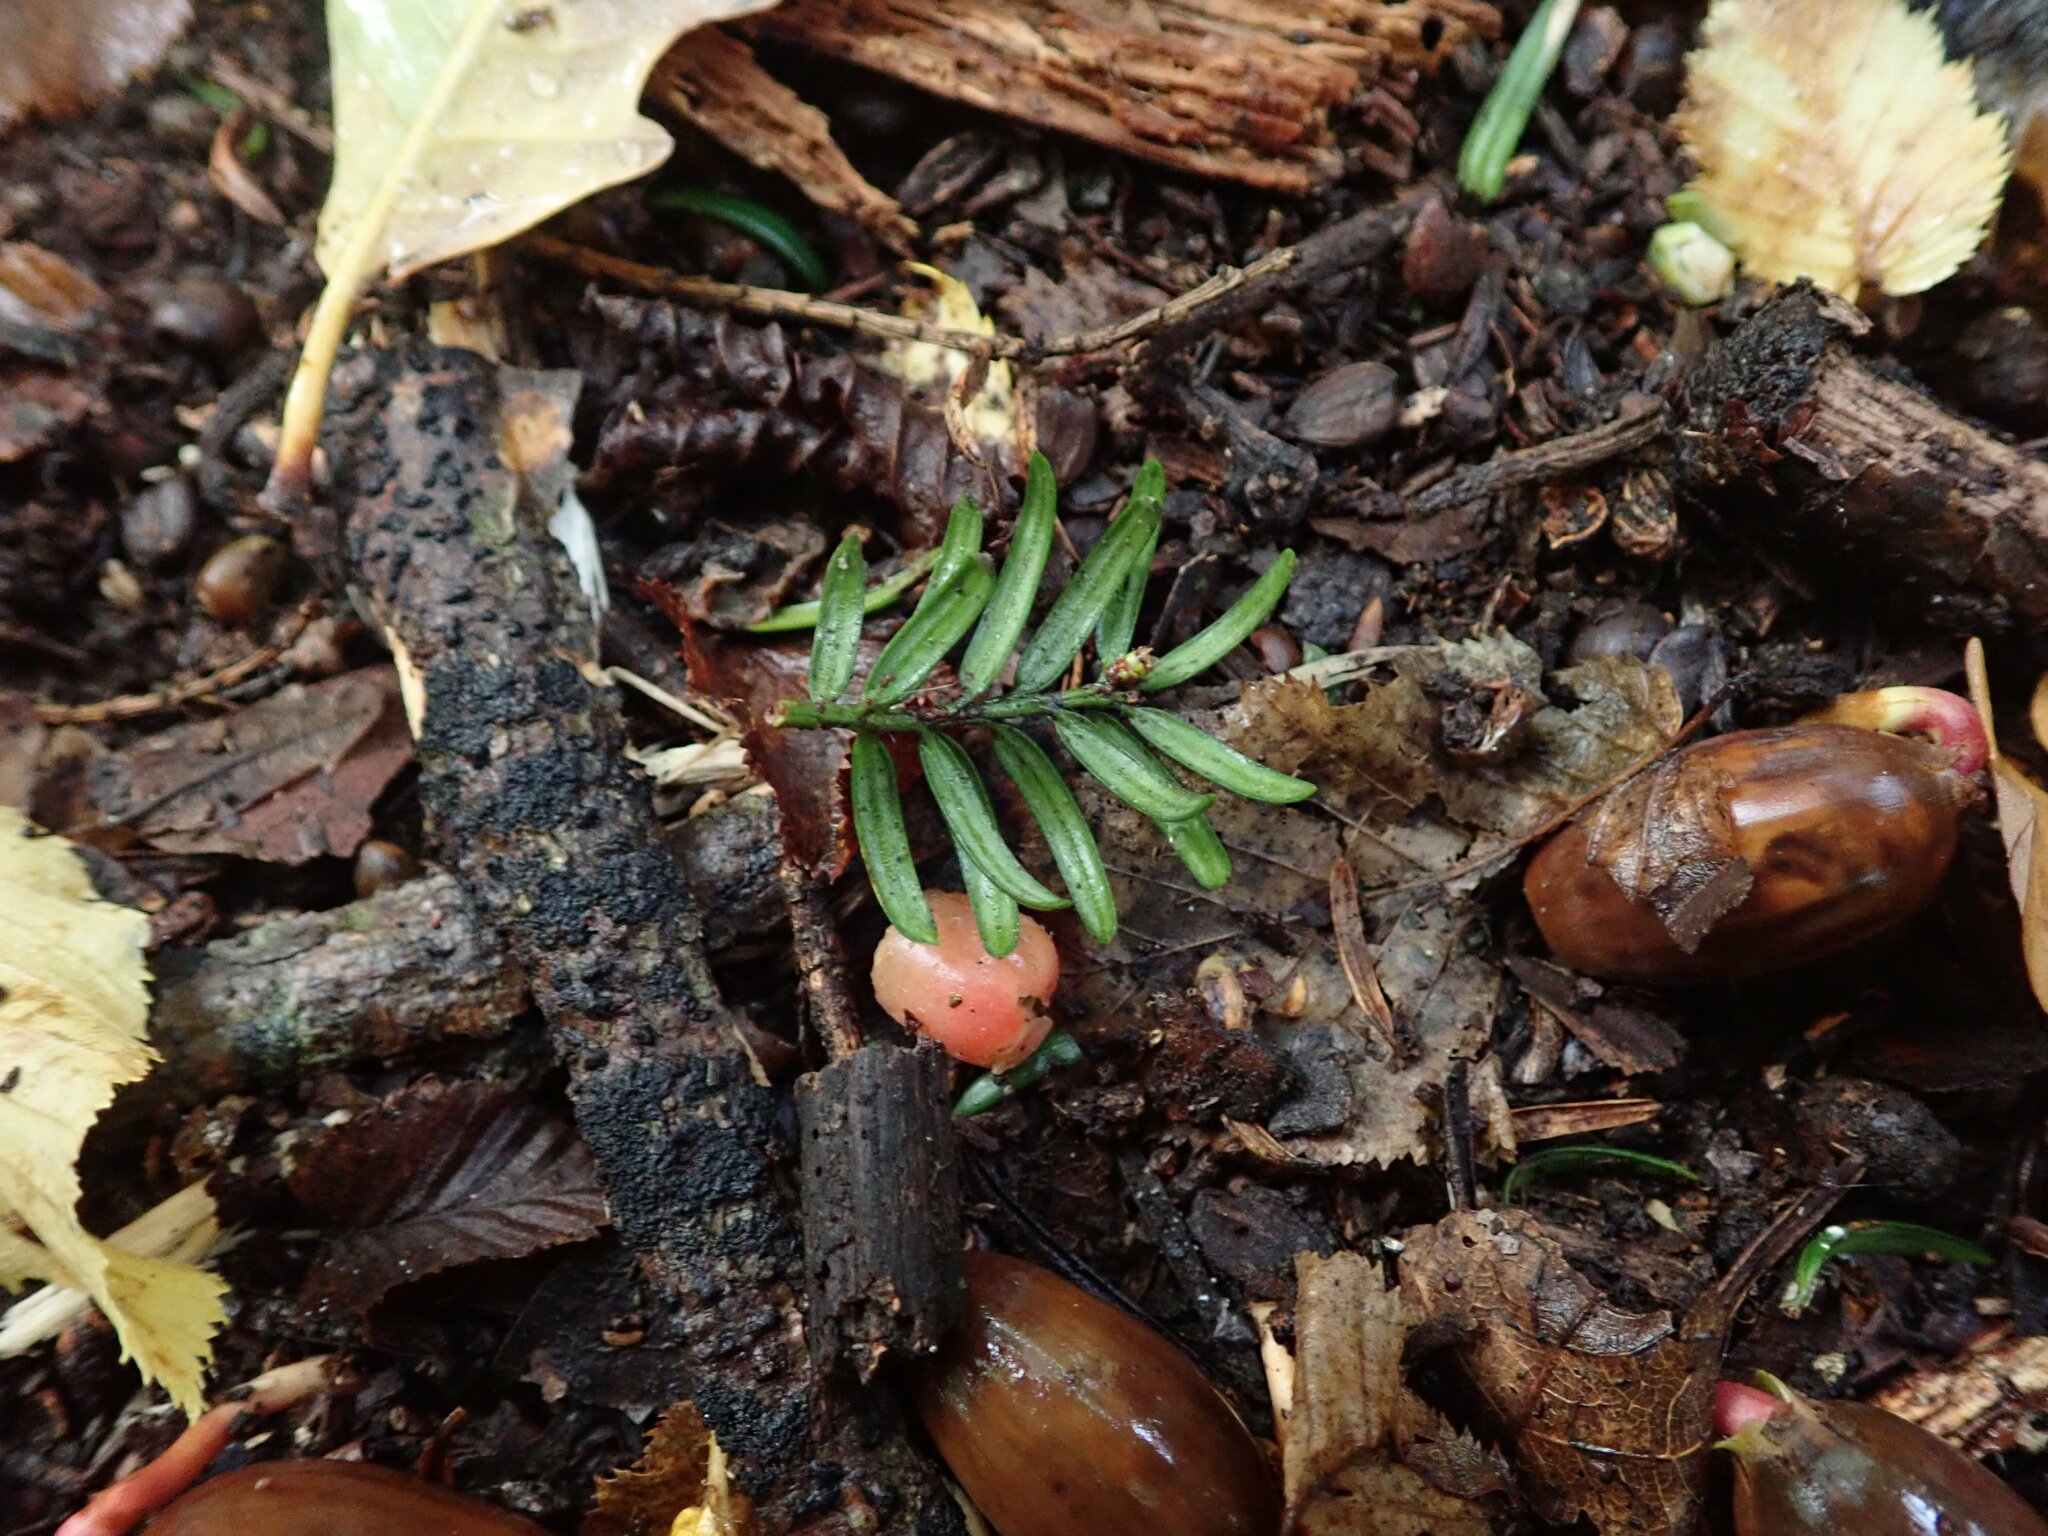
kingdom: Plantae
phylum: Tracheophyta
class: Pinopsida
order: Pinales
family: Taxaceae
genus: Taxus
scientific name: Taxus baccata
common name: Yew
